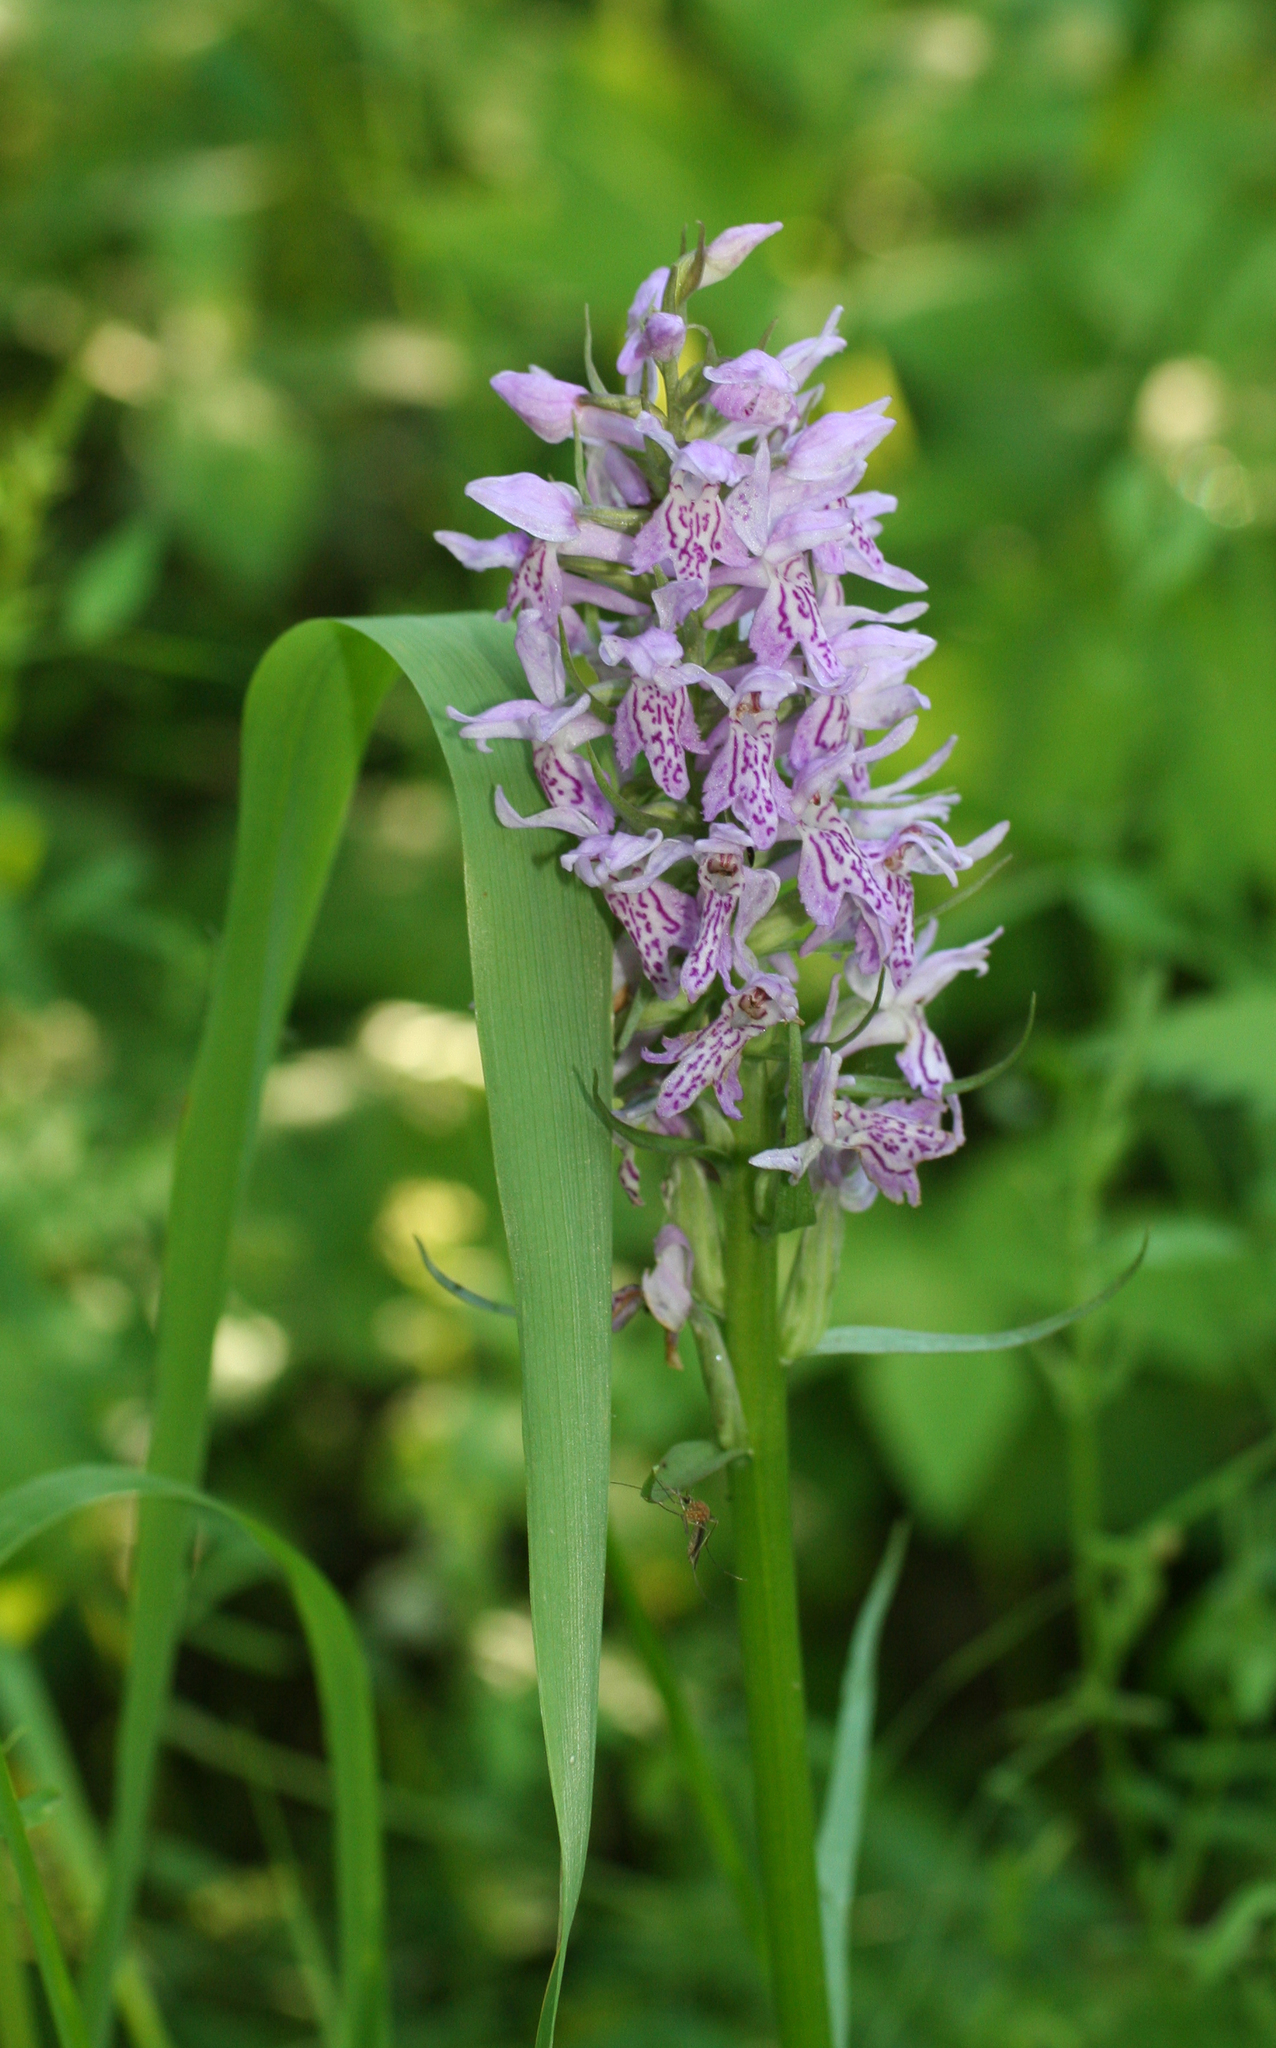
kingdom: Plantae
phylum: Tracheophyta
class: Liliopsida
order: Asparagales
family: Orchidaceae
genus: Dactylorhiza
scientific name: Dactylorhiza sibirica
